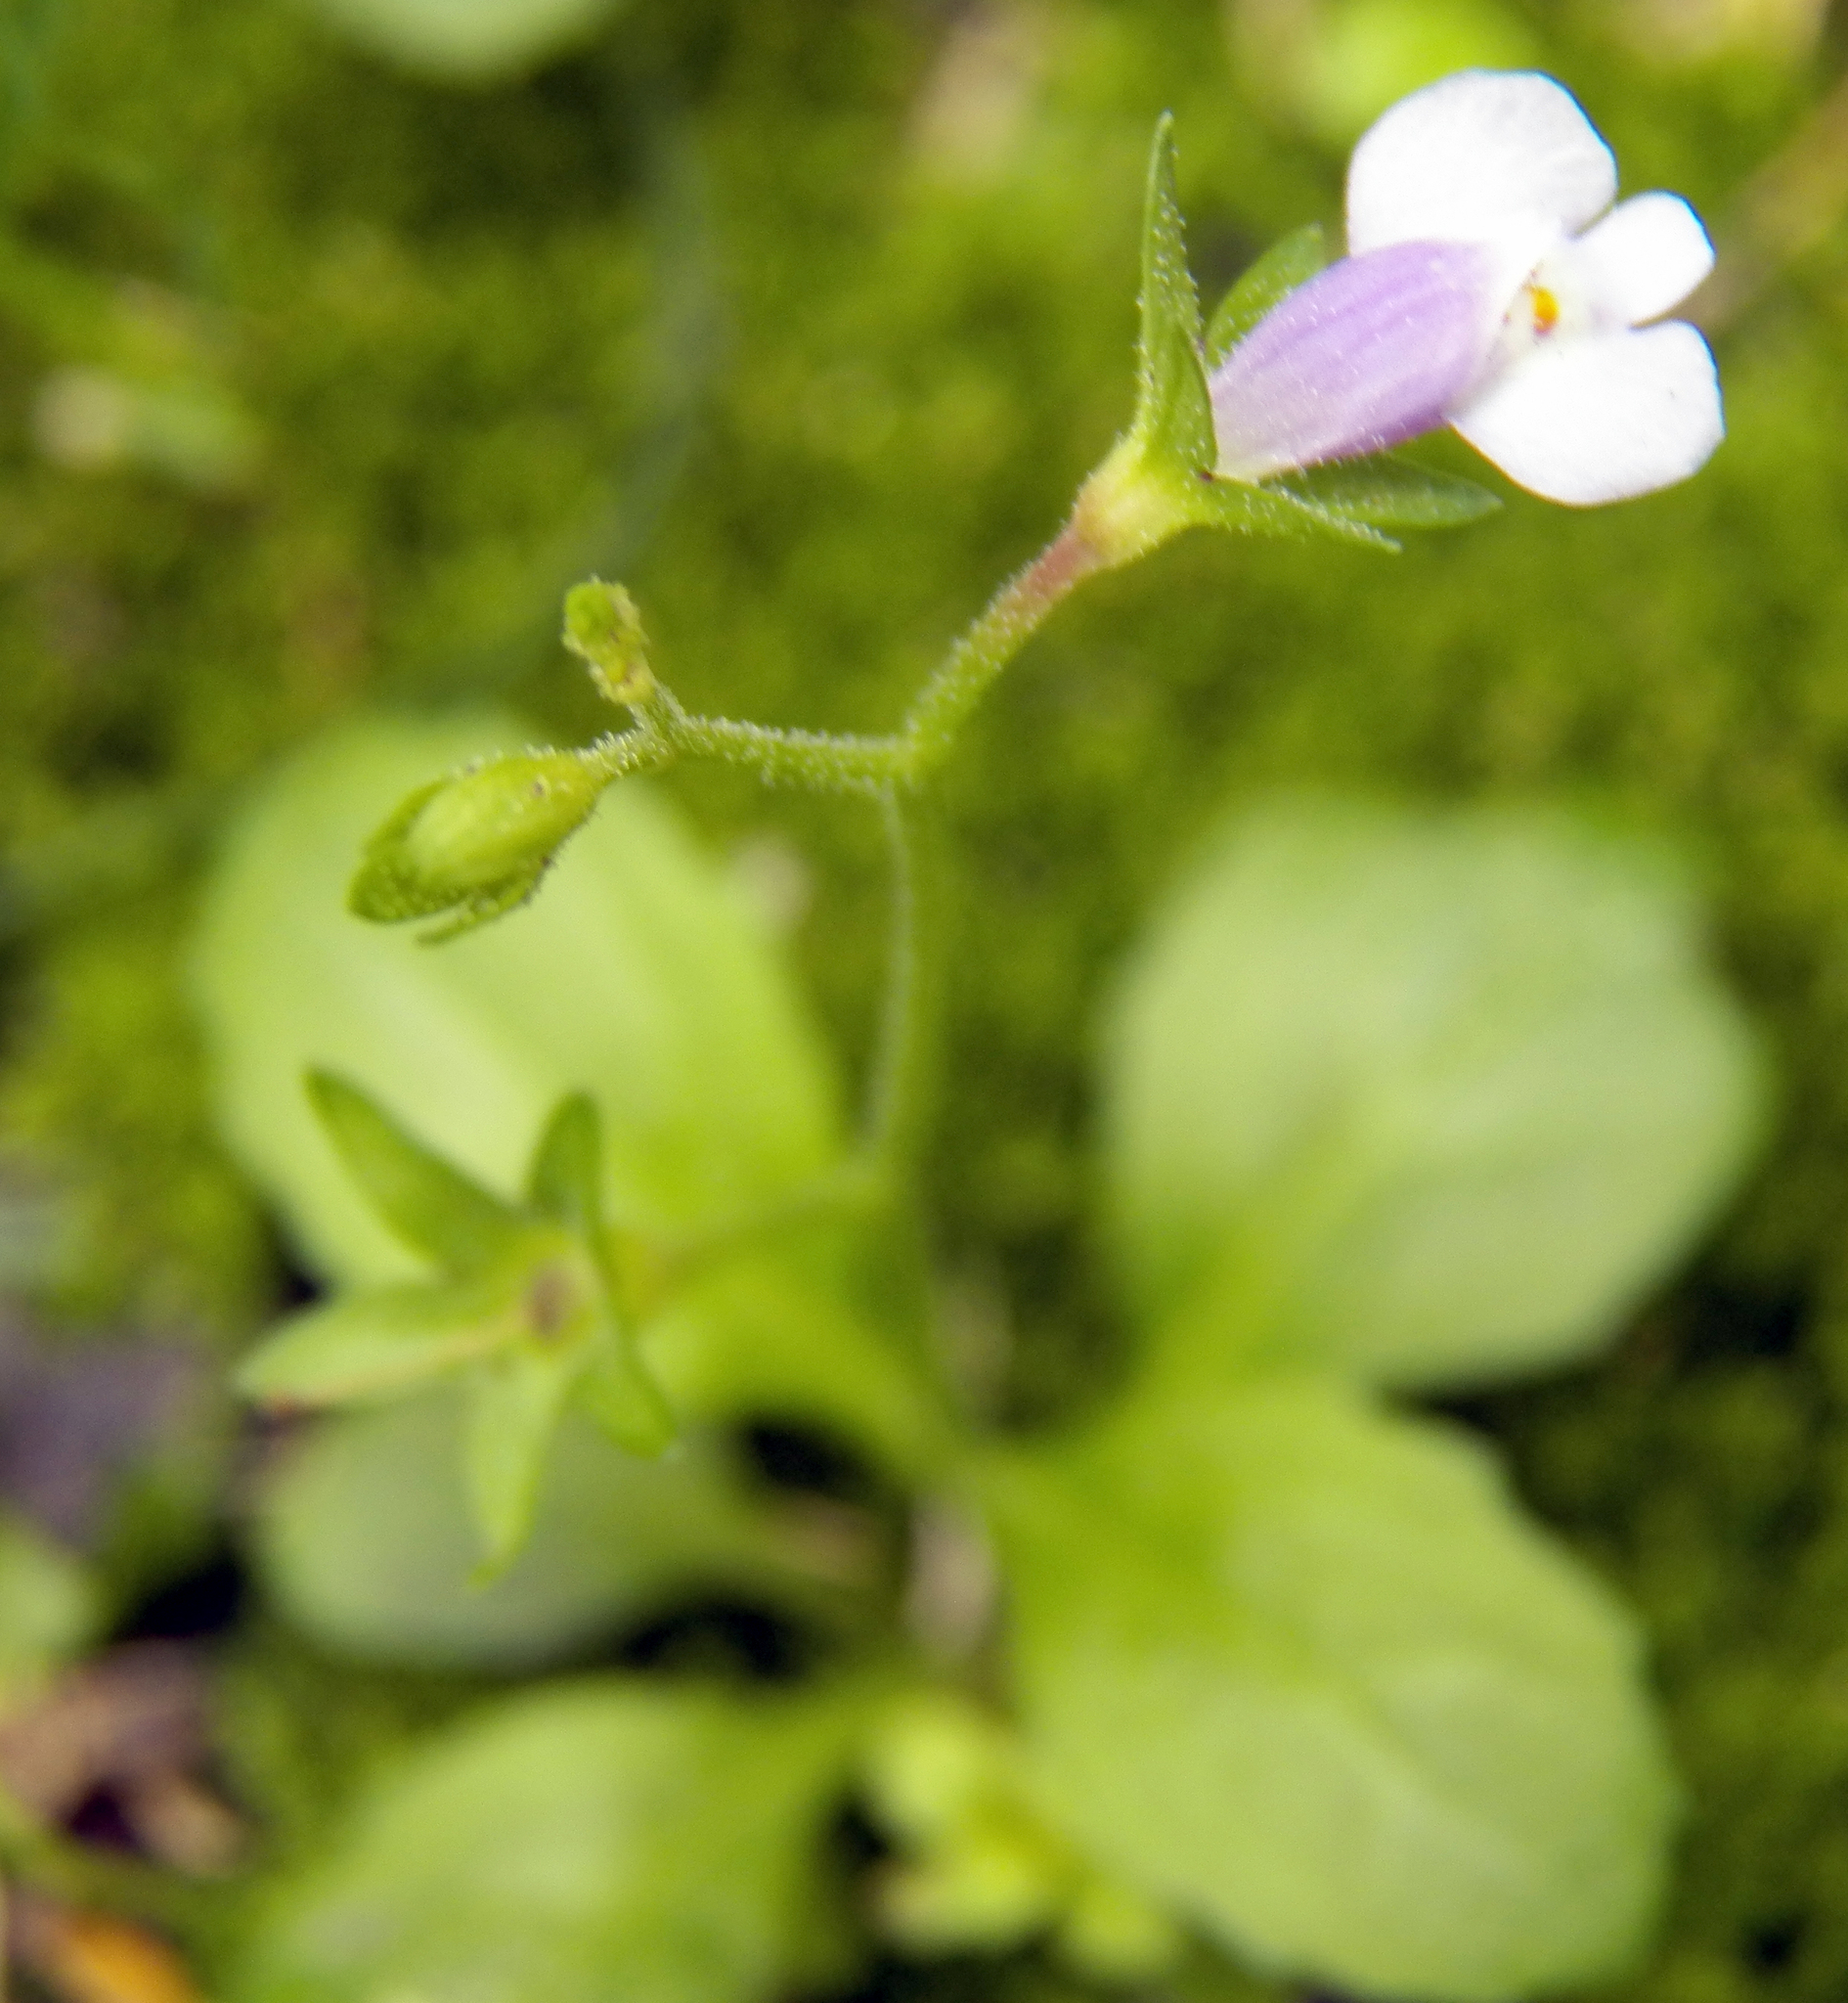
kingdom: Plantae
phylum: Tracheophyta
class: Magnoliopsida
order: Lamiales
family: Mazaceae
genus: Mazus
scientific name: Mazus pumilus
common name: Japanese mazus
